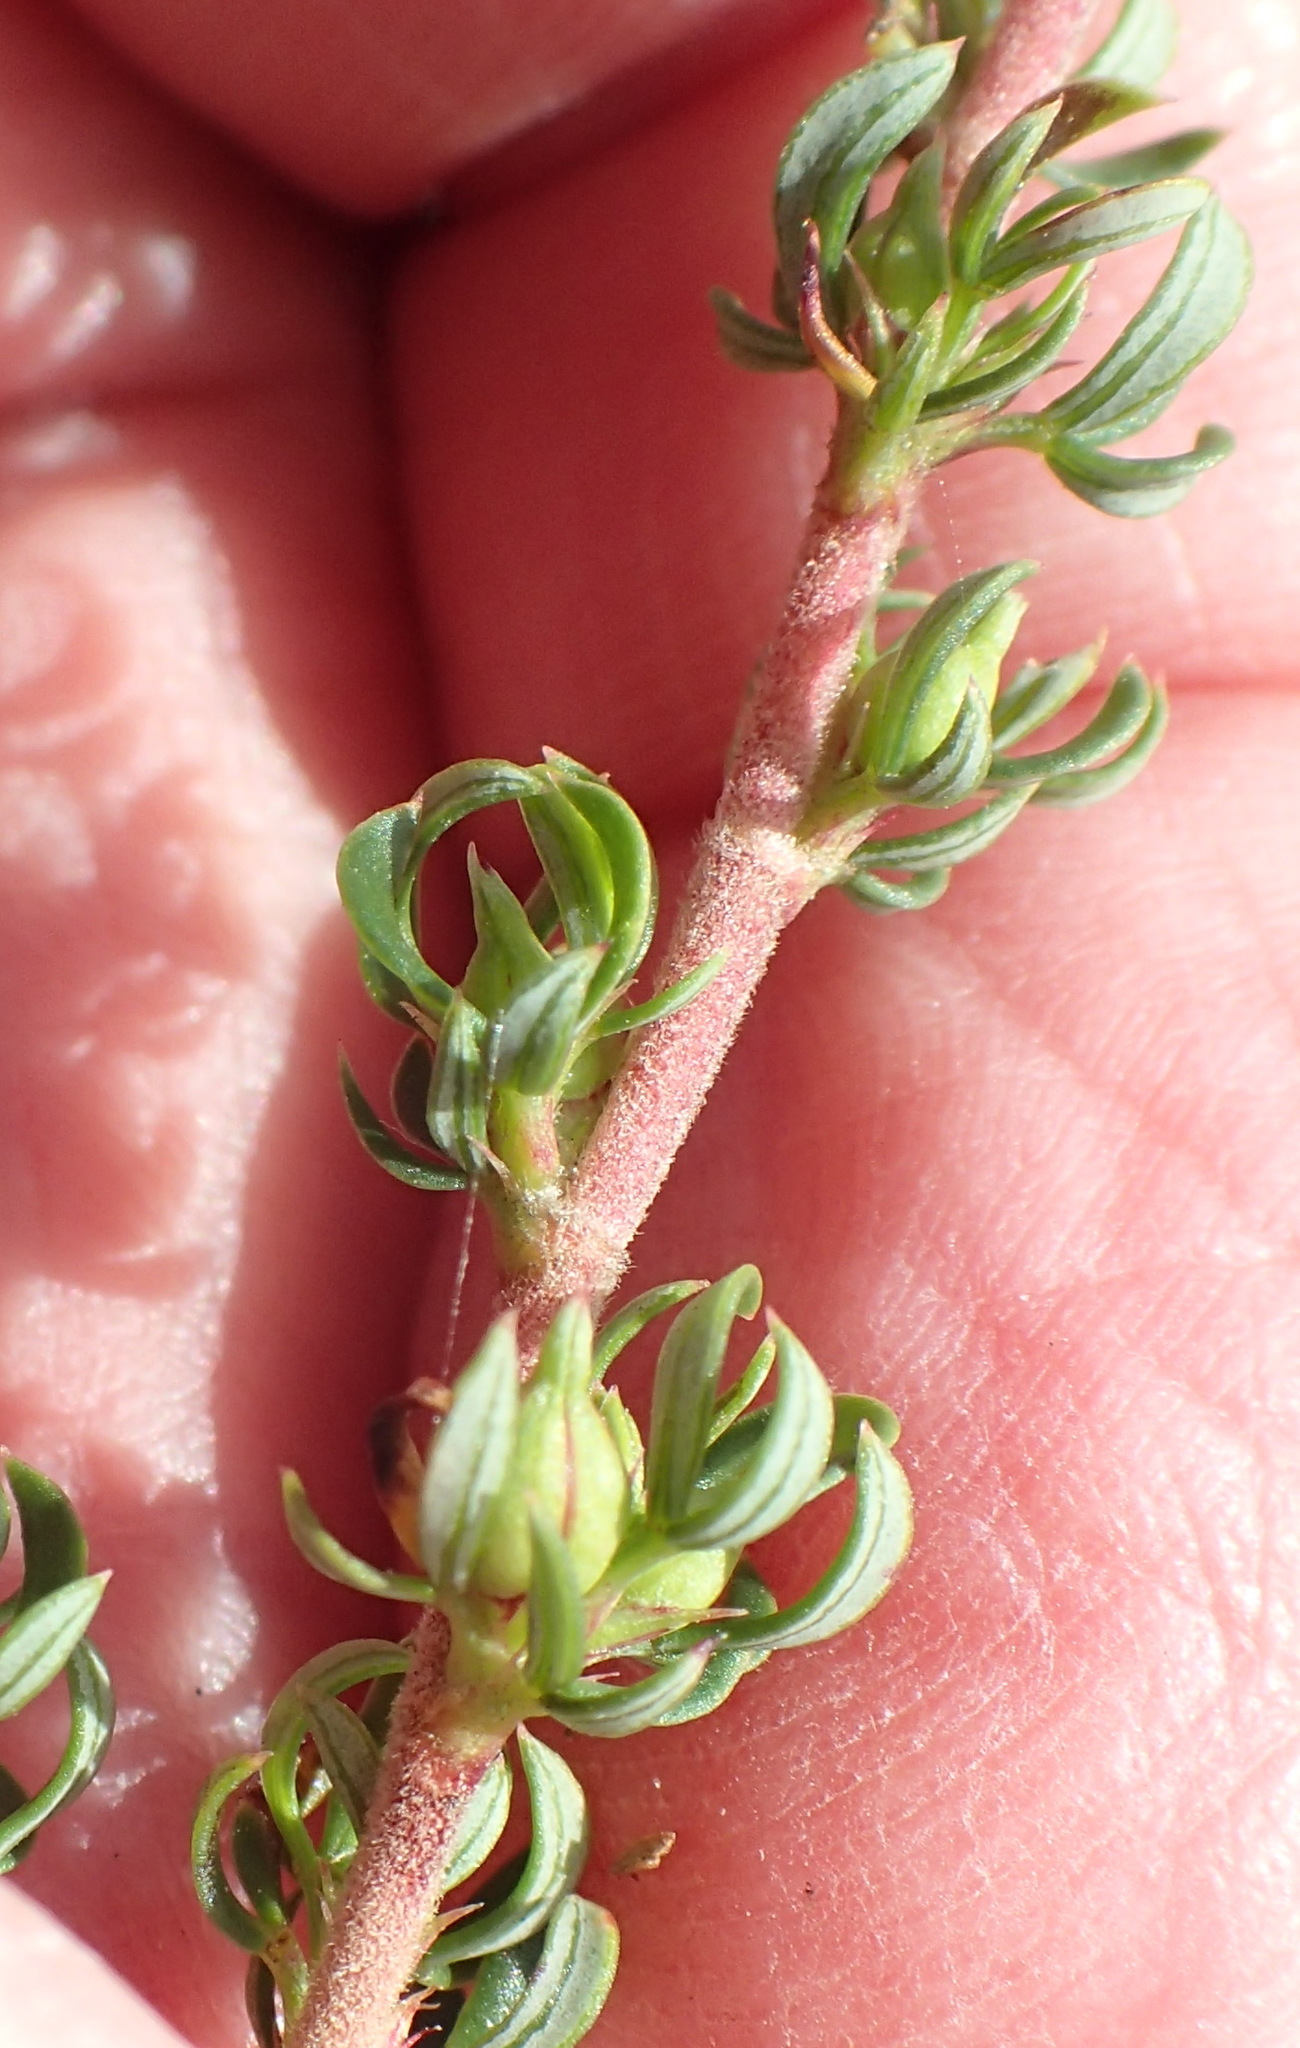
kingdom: Plantae
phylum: Tracheophyta
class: Magnoliopsida
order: Rosales
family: Rosaceae
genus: Cliffortia
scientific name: Cliffortia falcata
